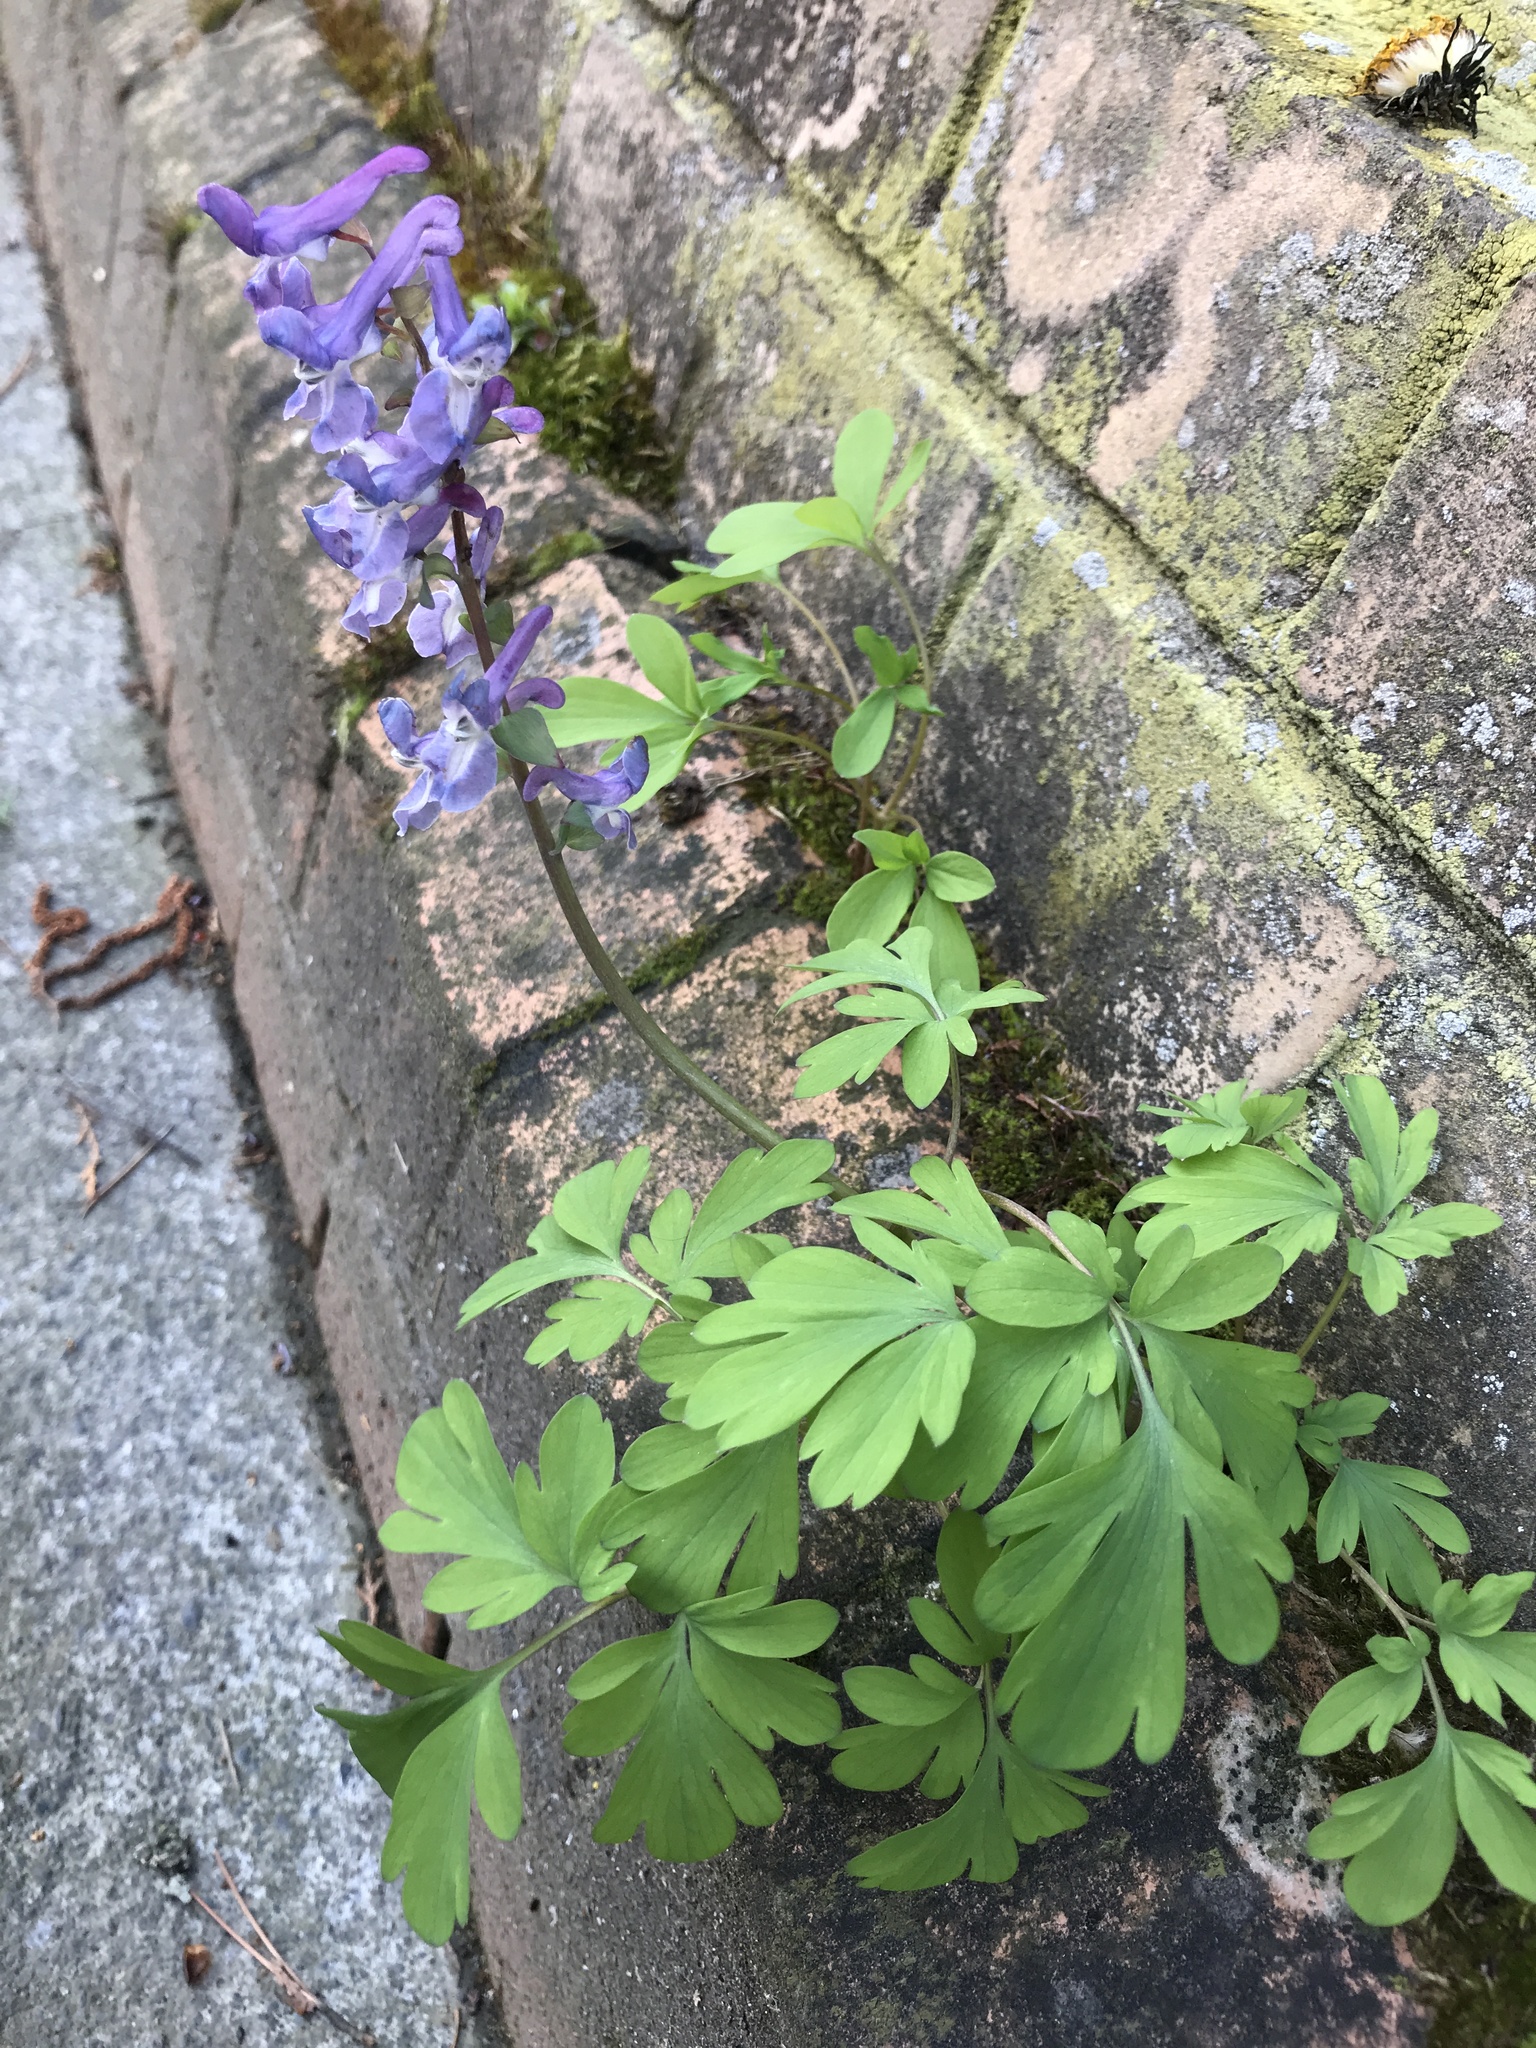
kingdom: Plantae
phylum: Tracheophyta
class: Magnoliopsida
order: Ranunculales
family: Papaveraceae
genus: Corydalis
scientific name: Corydalis cava
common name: Hollowroot
